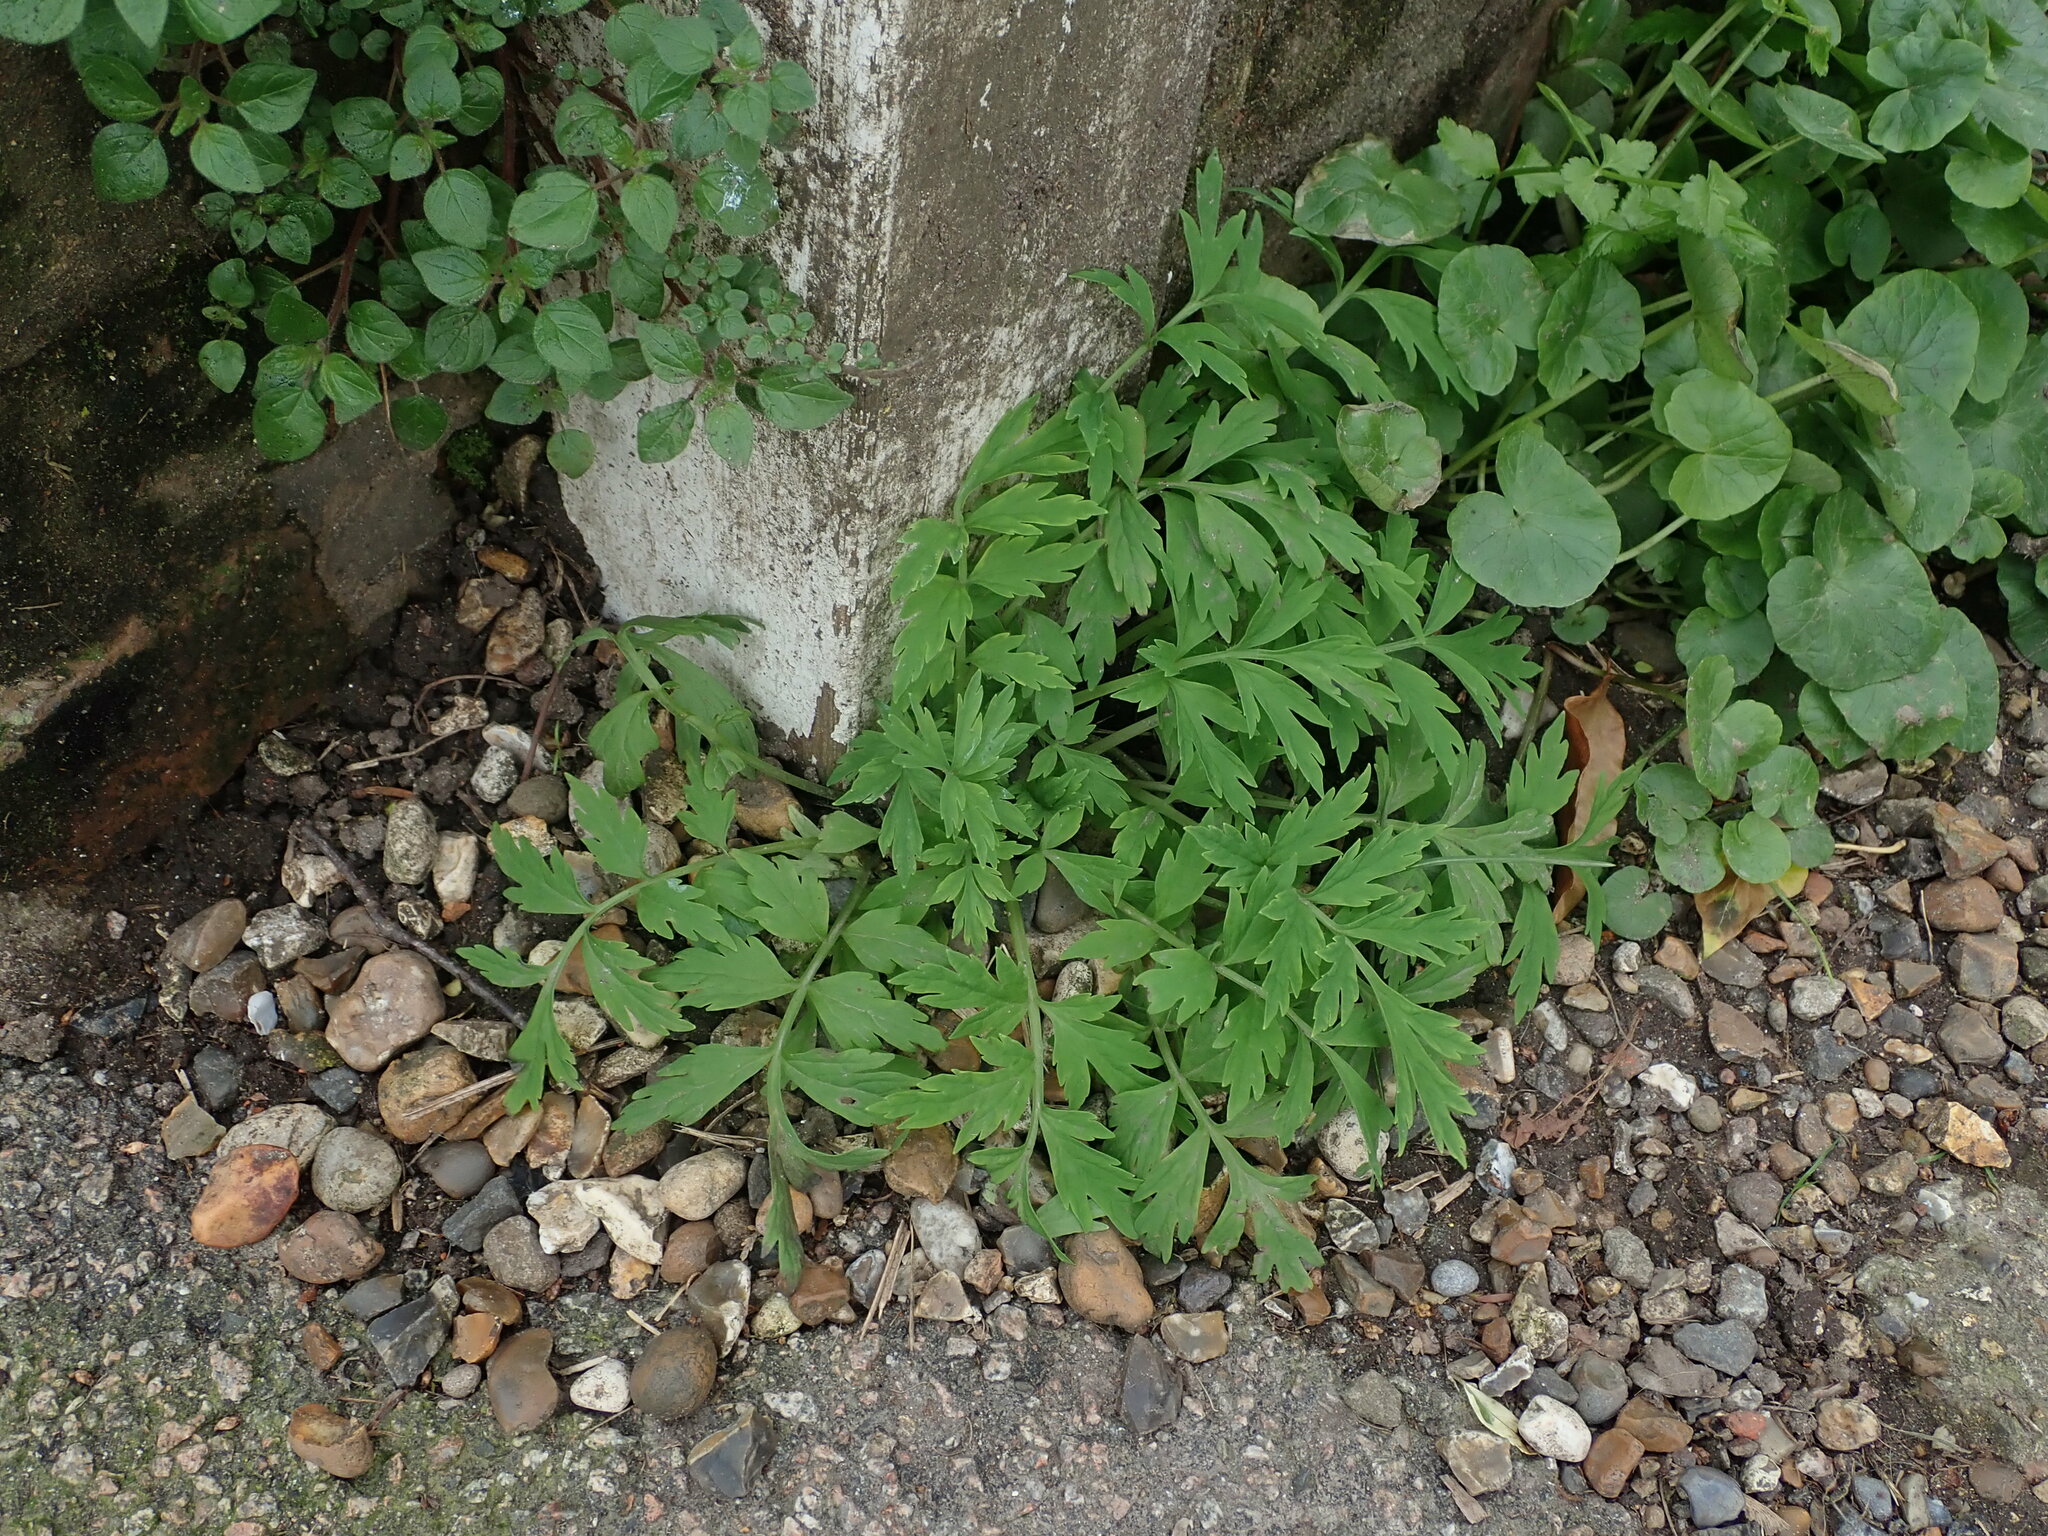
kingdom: Plantae
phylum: Tracheophyta
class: Magnoliopsida
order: Ranunculales
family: Papaveraceae
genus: Papaver
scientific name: Papaver cambricum
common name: Poppy
